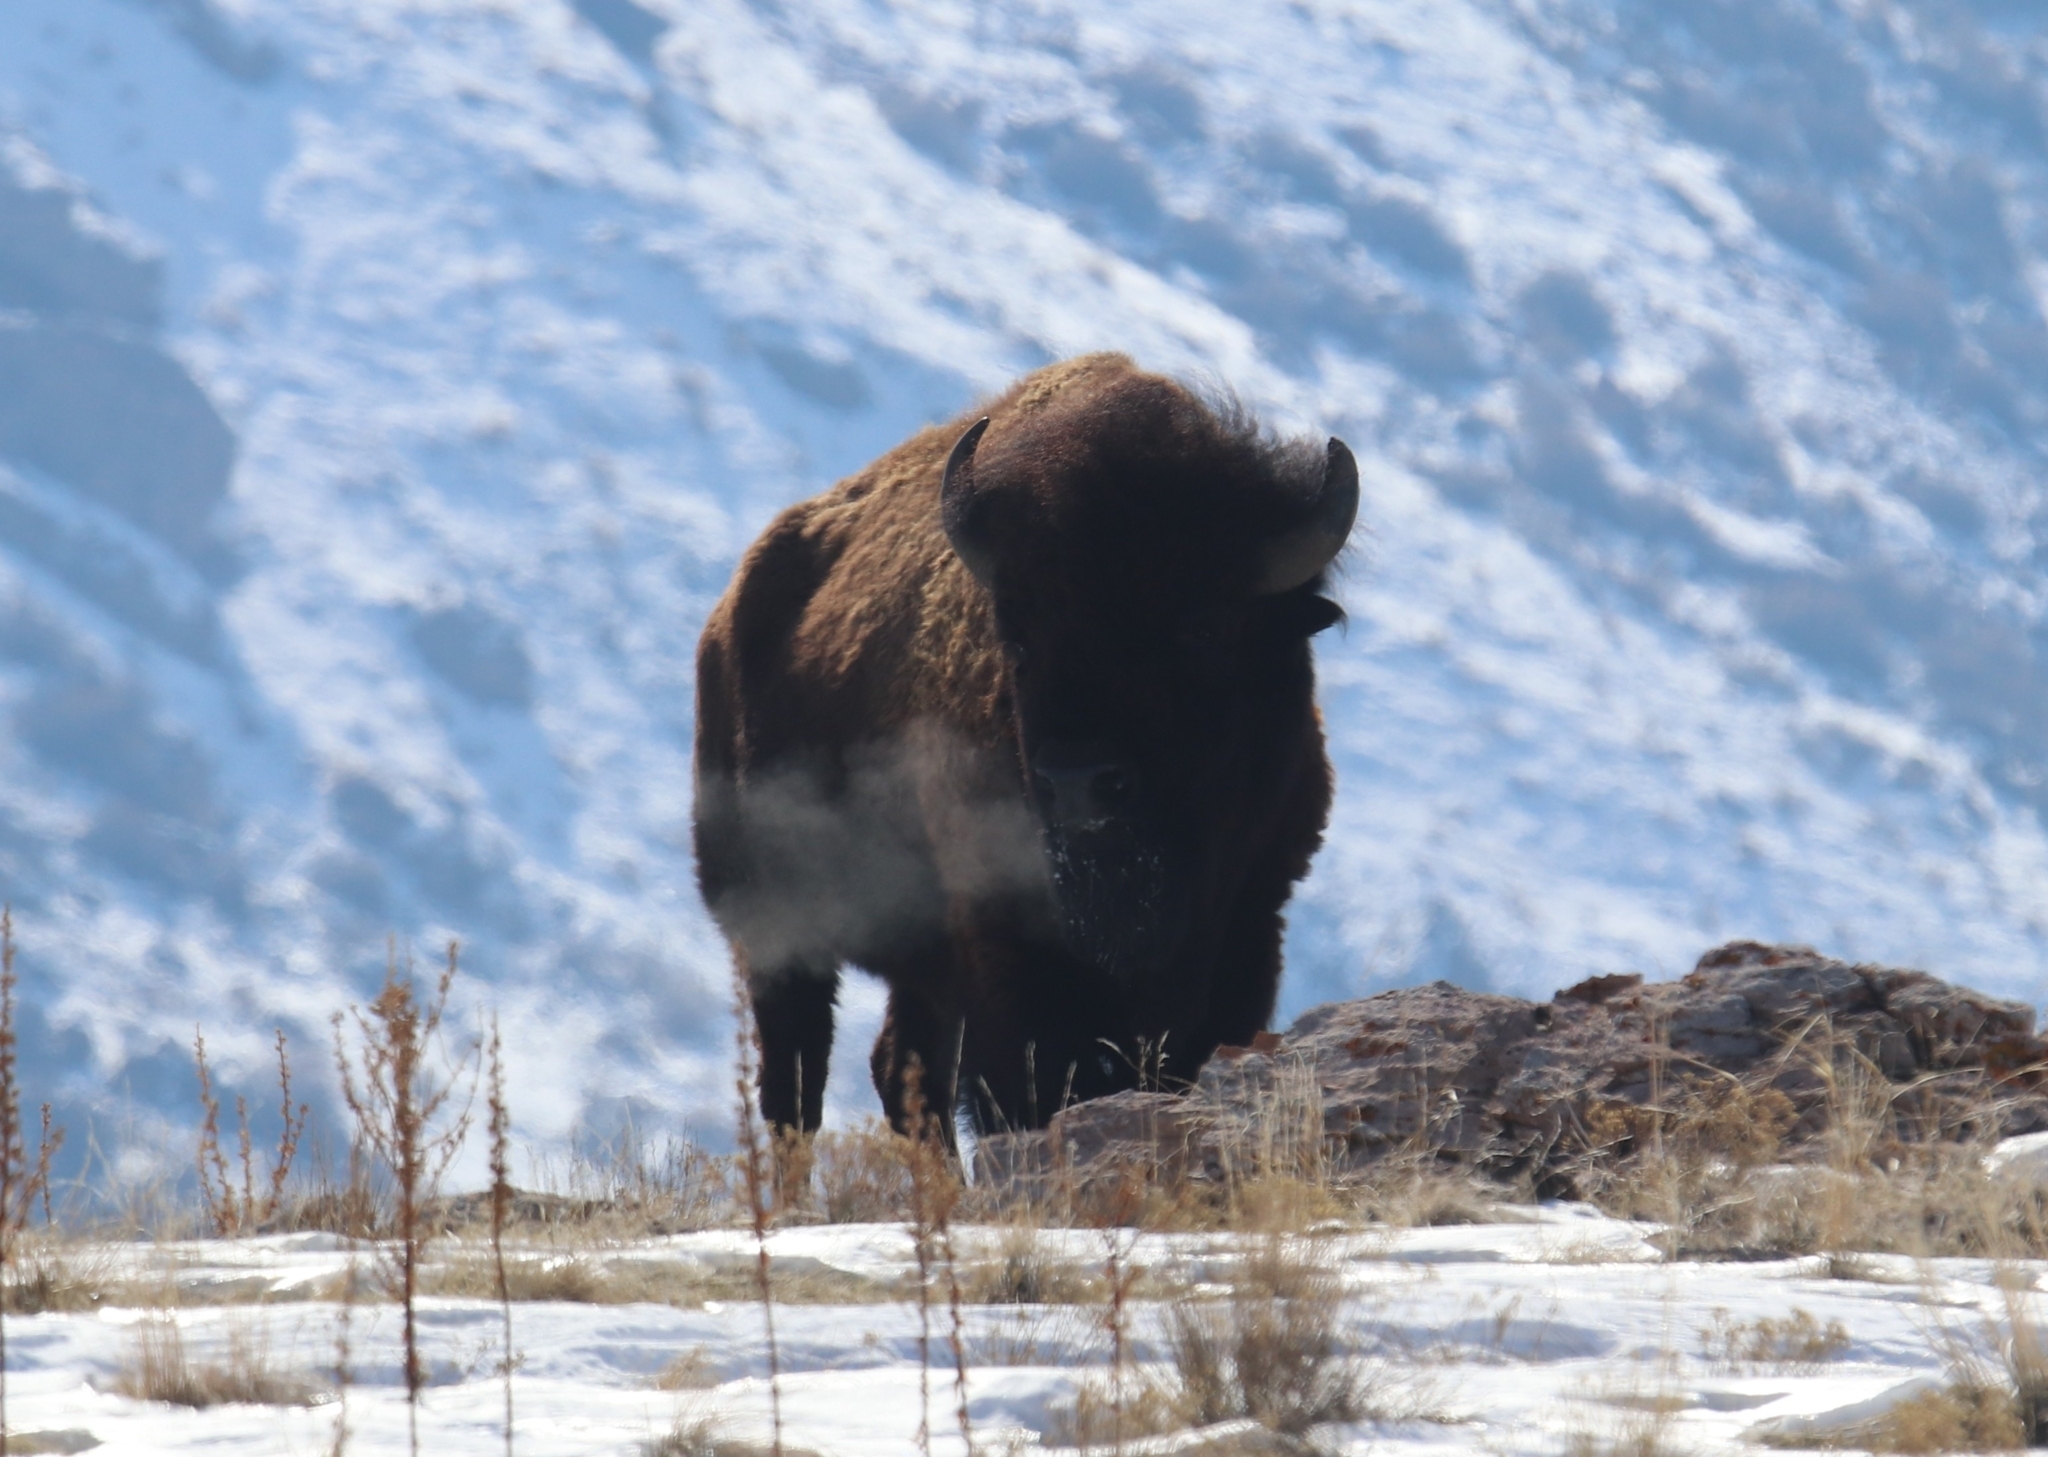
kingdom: Animalia
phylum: Chordata
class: Mammalia
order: Artiodactyla
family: Bovidae
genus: Bison
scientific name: Bison bison
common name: American bison
